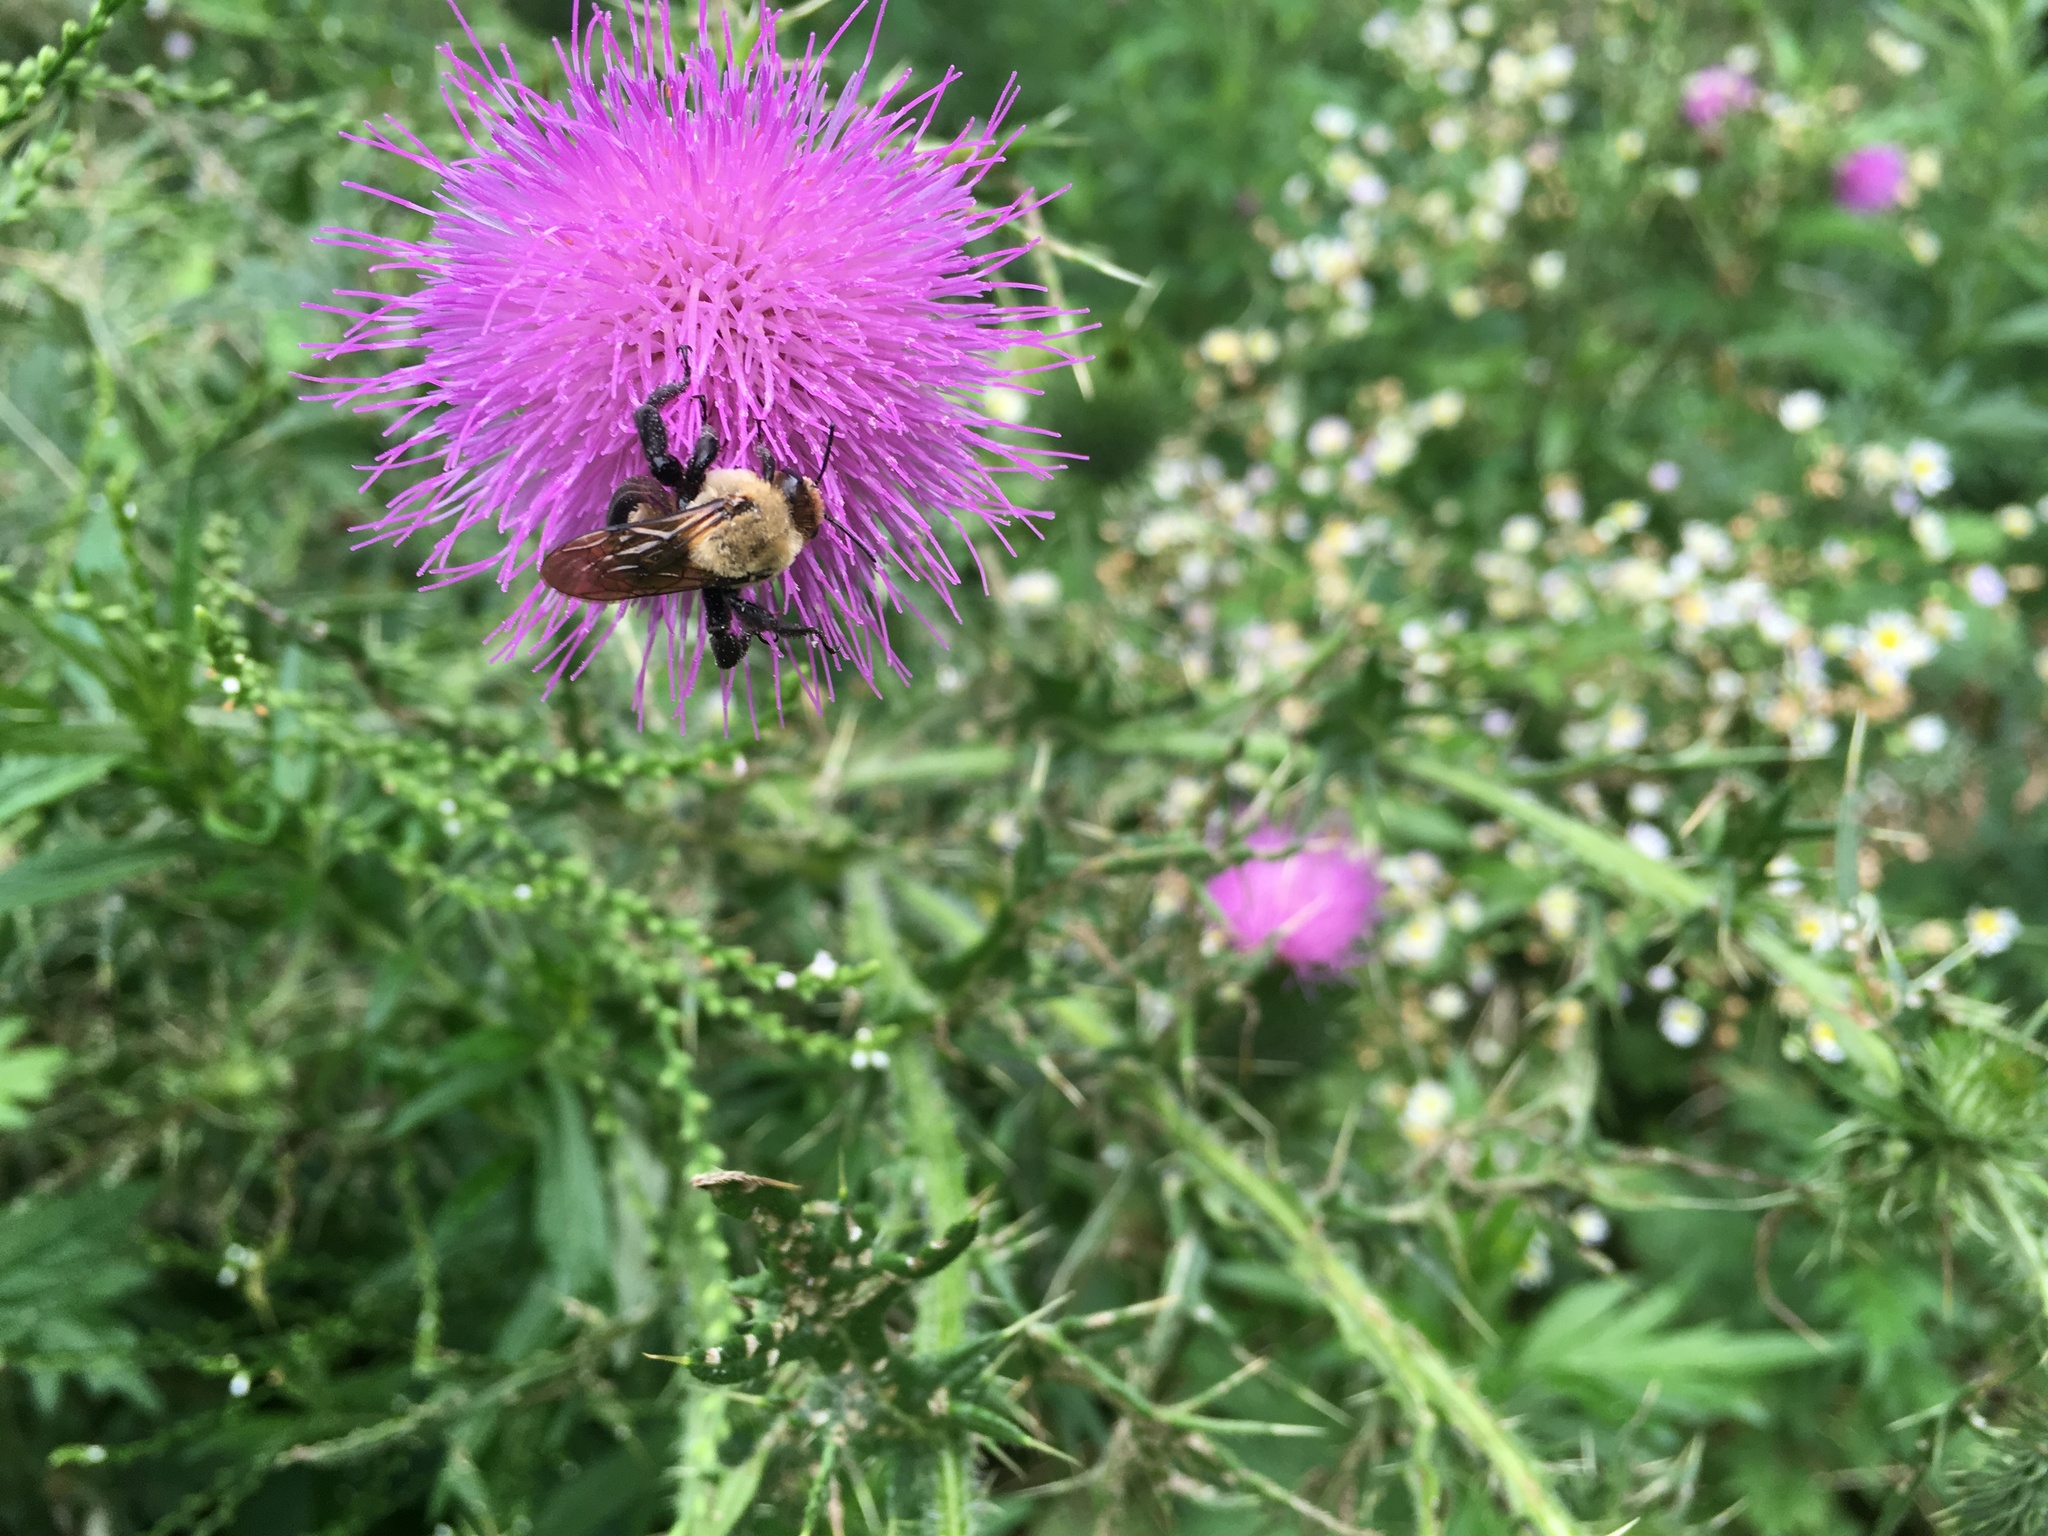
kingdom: Animalia
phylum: Arthropoda
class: Insecta
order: Hymenoptera
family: Apidae
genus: Ptilothrix
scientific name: Ptilothrix bombiformis
